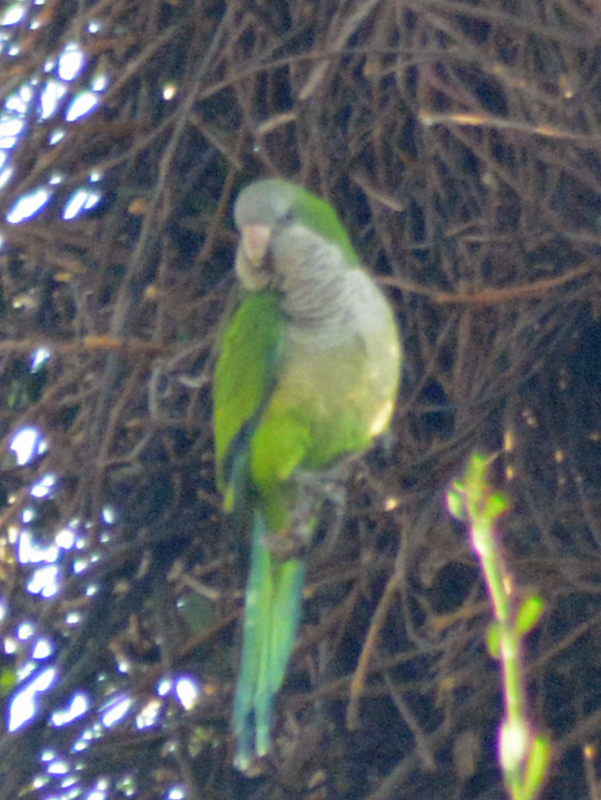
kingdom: Animalia
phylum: Chordata
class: Aves
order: Psittaciformes
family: Psittacidae
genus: Myiopsitta
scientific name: Myiopsitta monachus
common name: Monk parakeet
